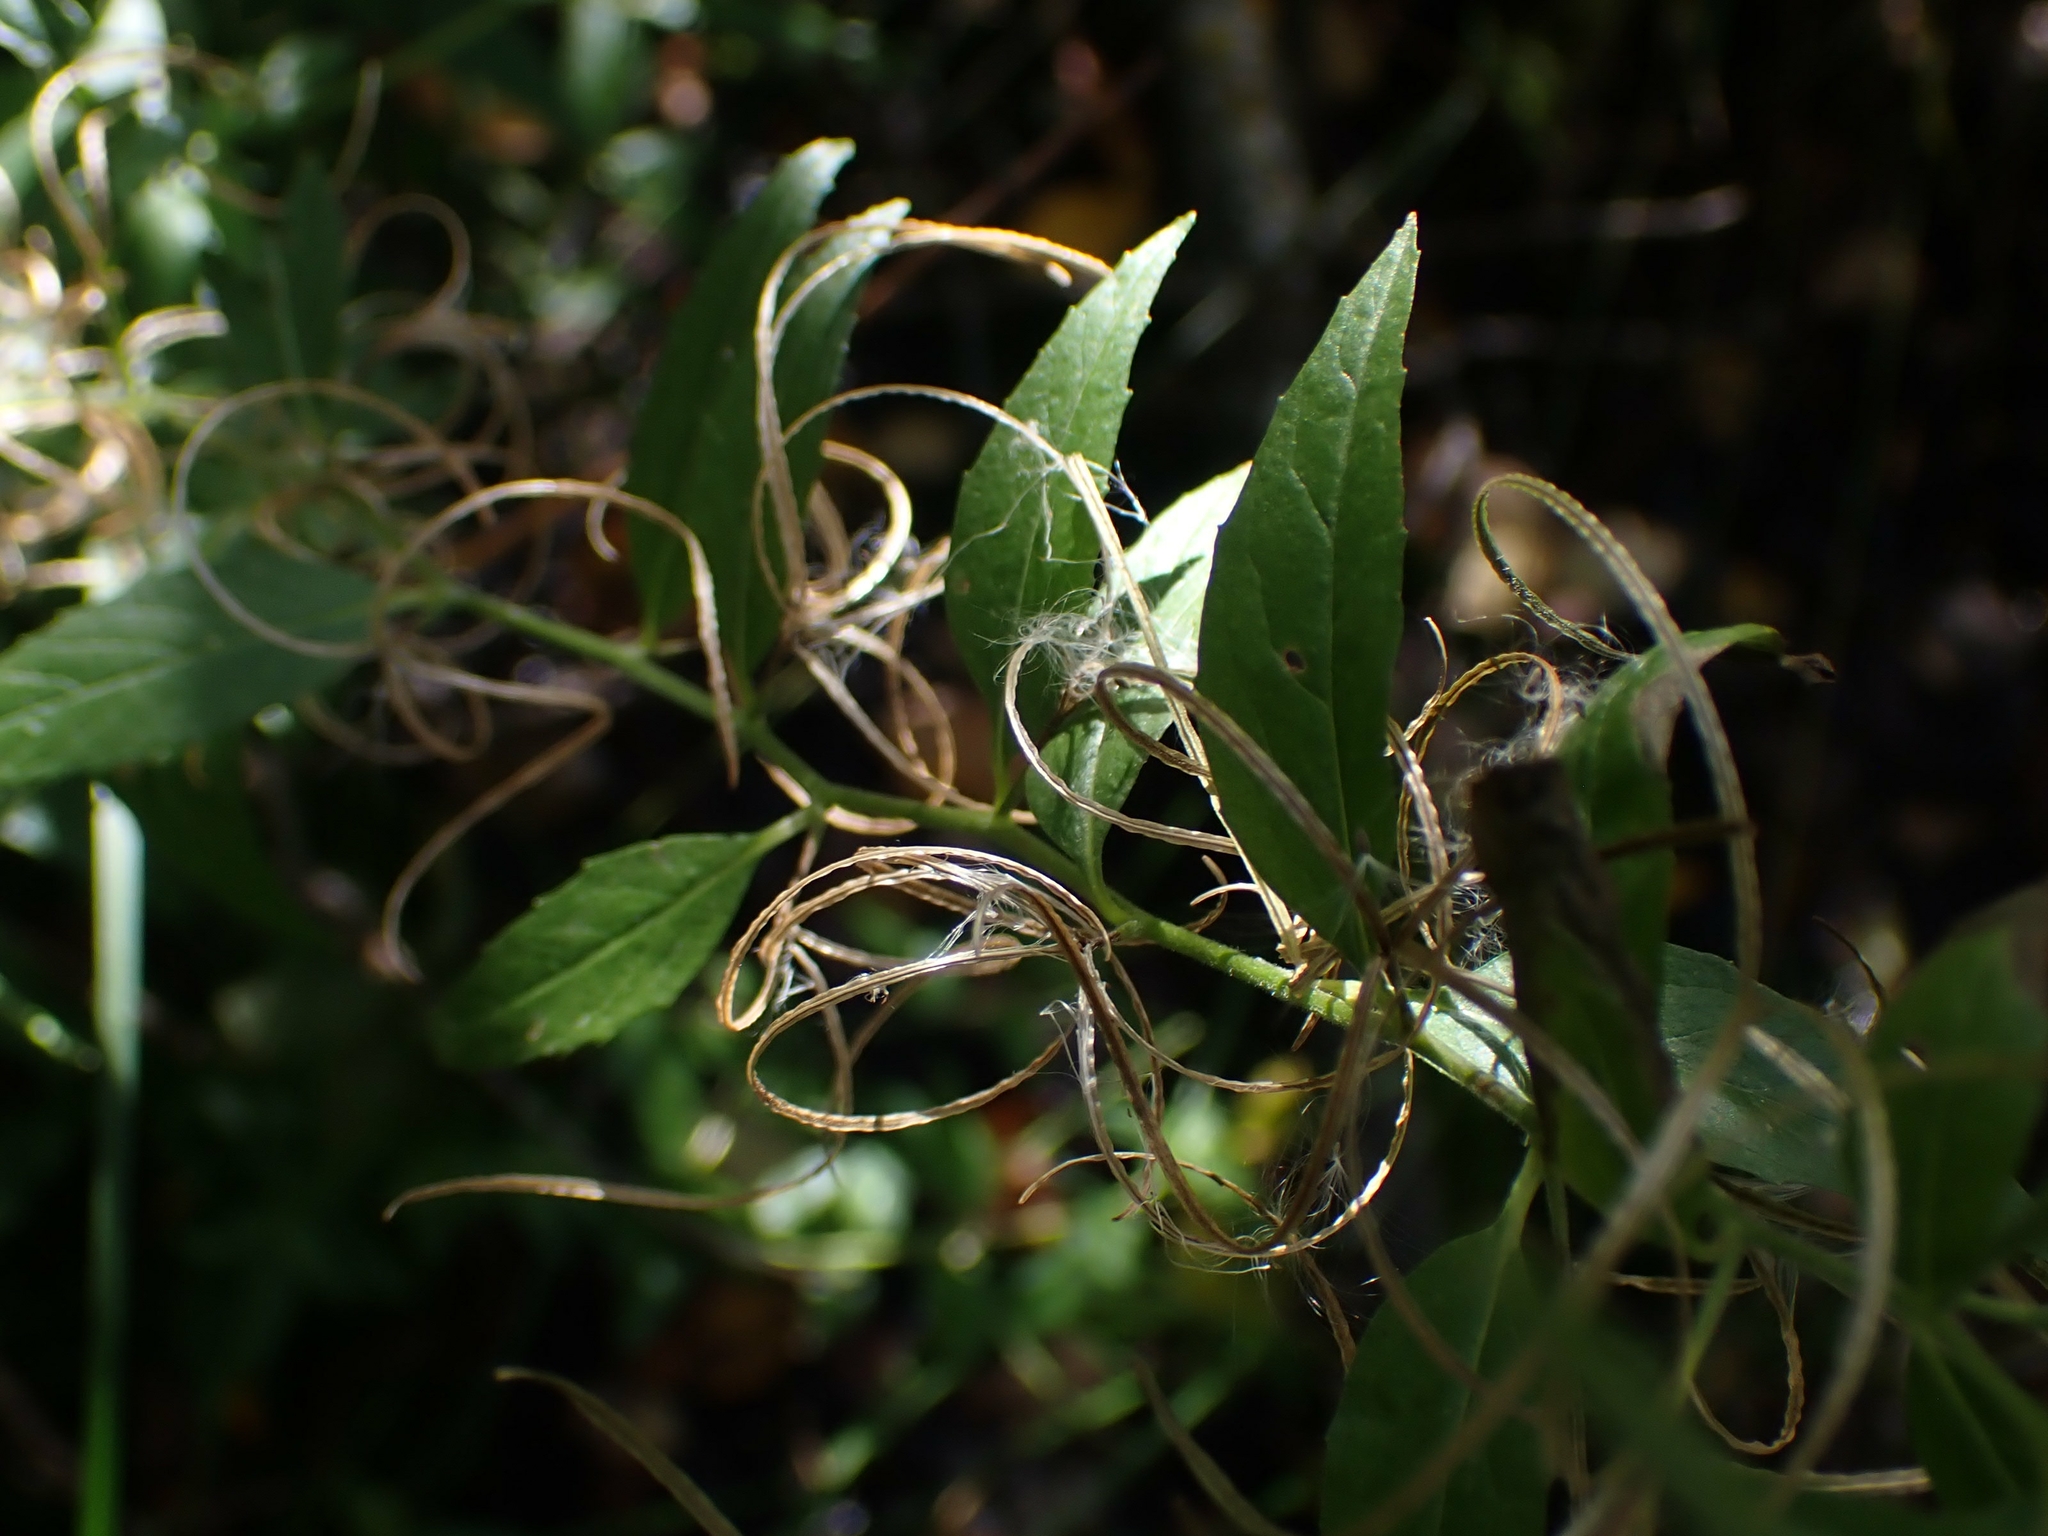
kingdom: Plantae
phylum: Tracheophyta
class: Magnoliopsida
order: Myrtales
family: Onagraceae
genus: Epilobium
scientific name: Epilobium ciliatum
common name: American willowherb
